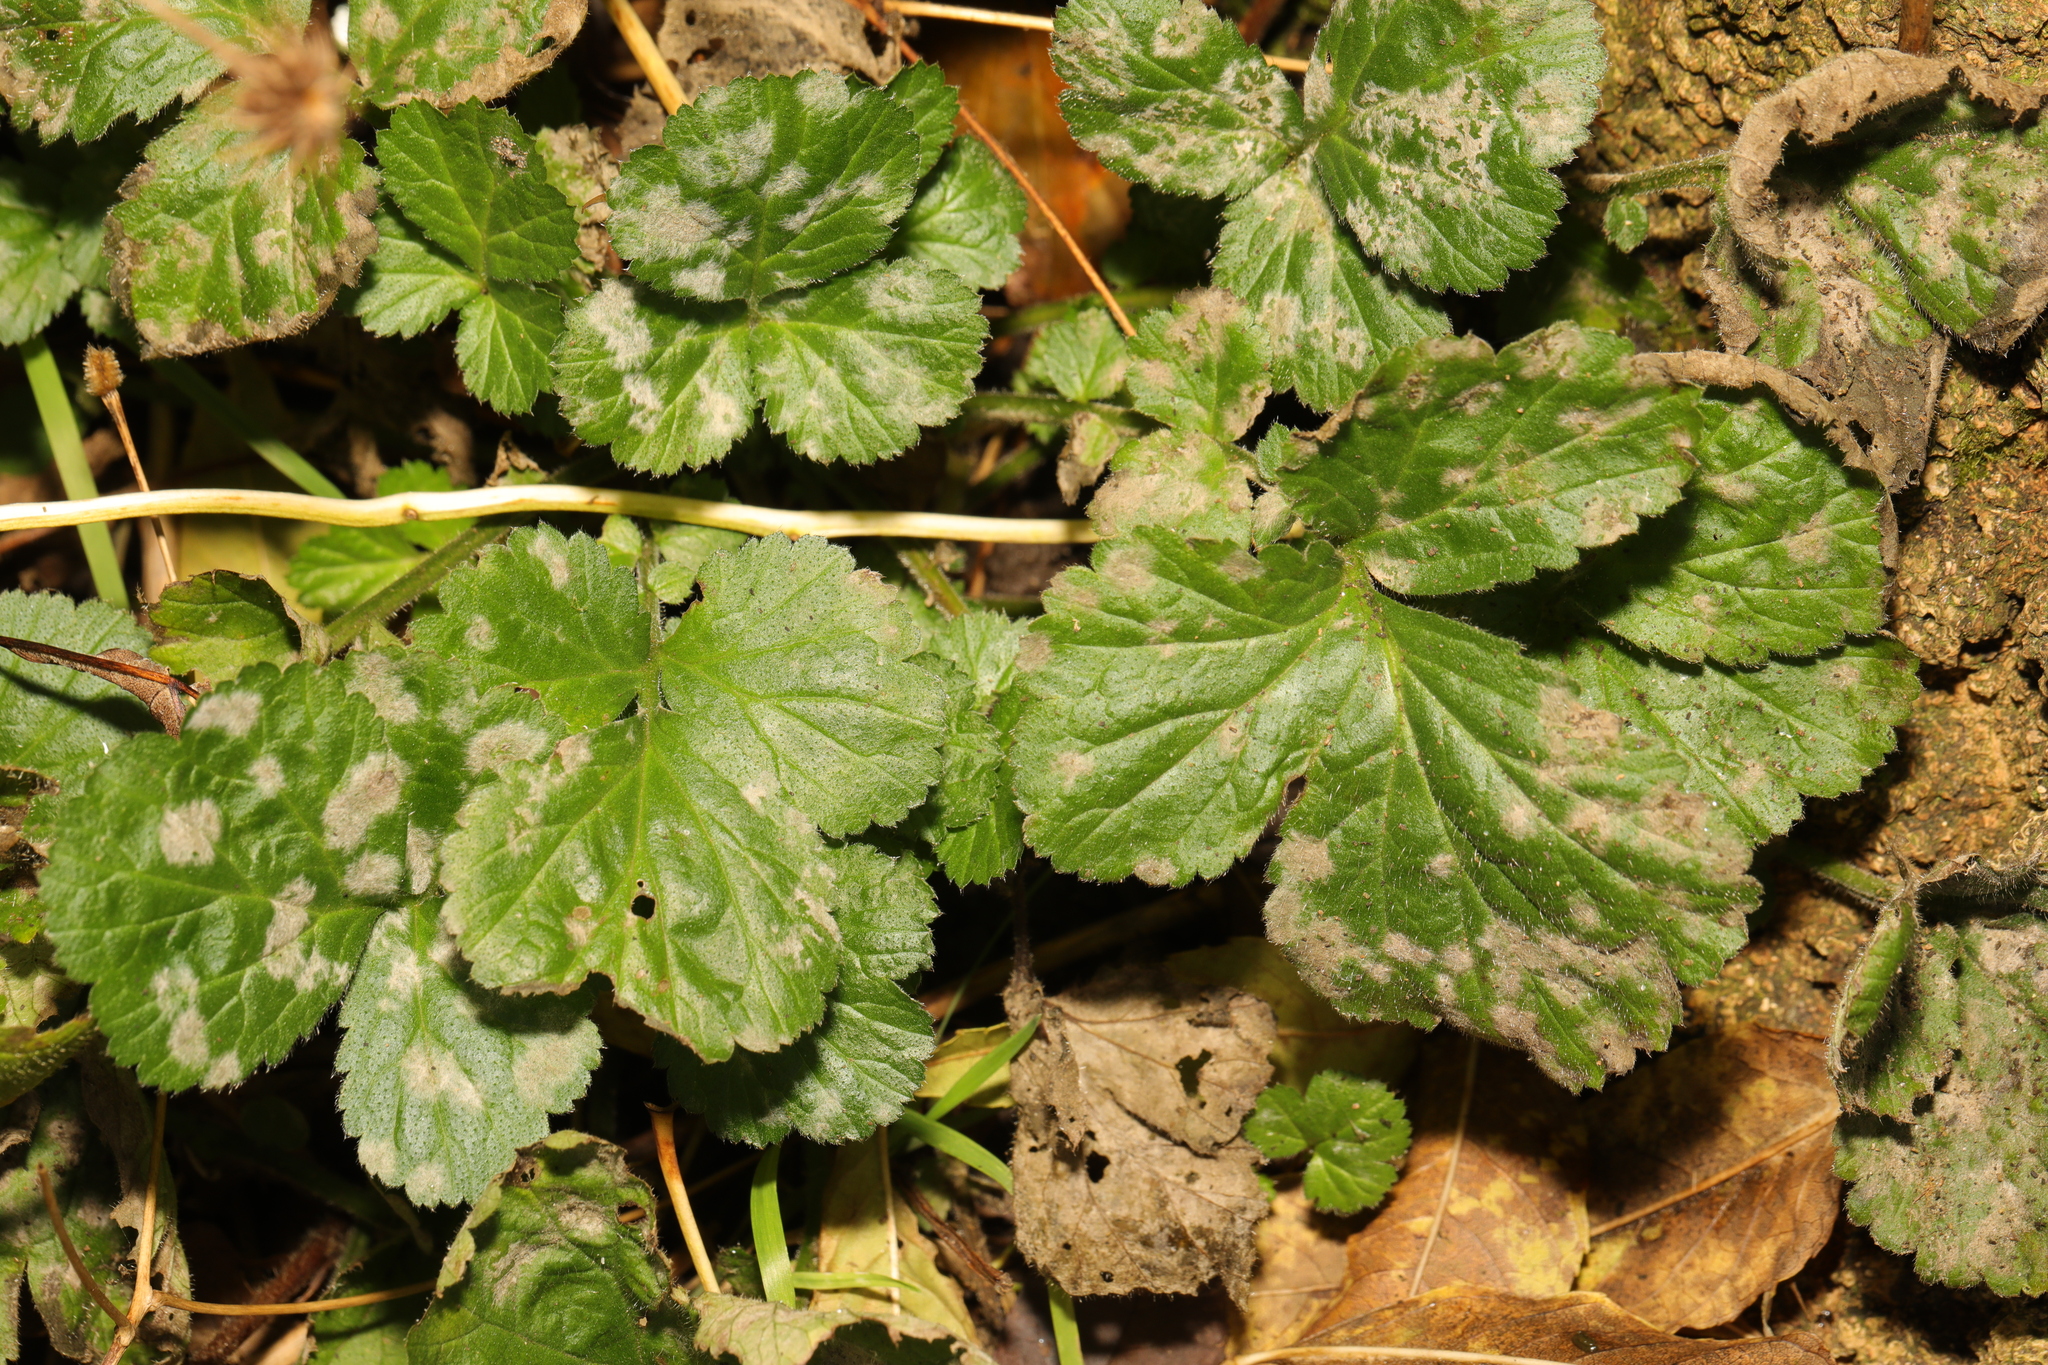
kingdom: Plantae
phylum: Tracheophyta
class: Magnoliopsida
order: Rosales
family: Rosaceae
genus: Geum
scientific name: Geum urbanum
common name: Wood avens
